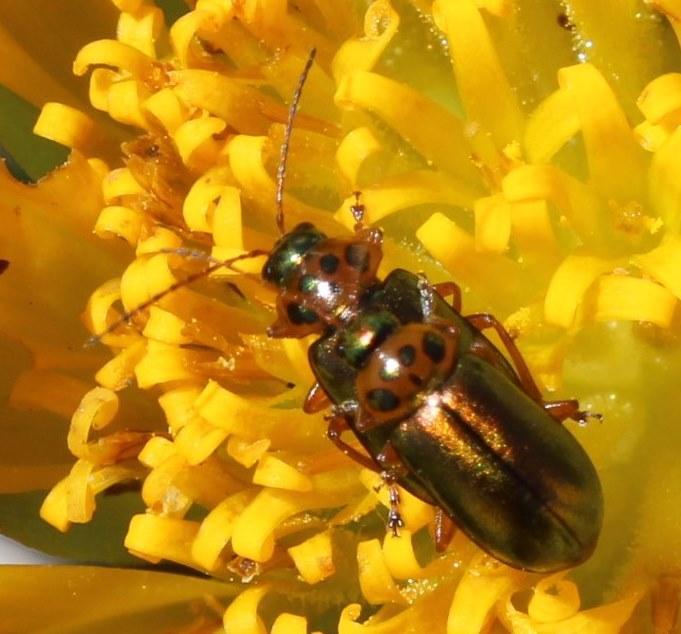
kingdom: Animalia
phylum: Arthropoda
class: Insecta
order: Coleoptera
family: Chrysomelidae
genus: Palaeophylia
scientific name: Palaeophylia
